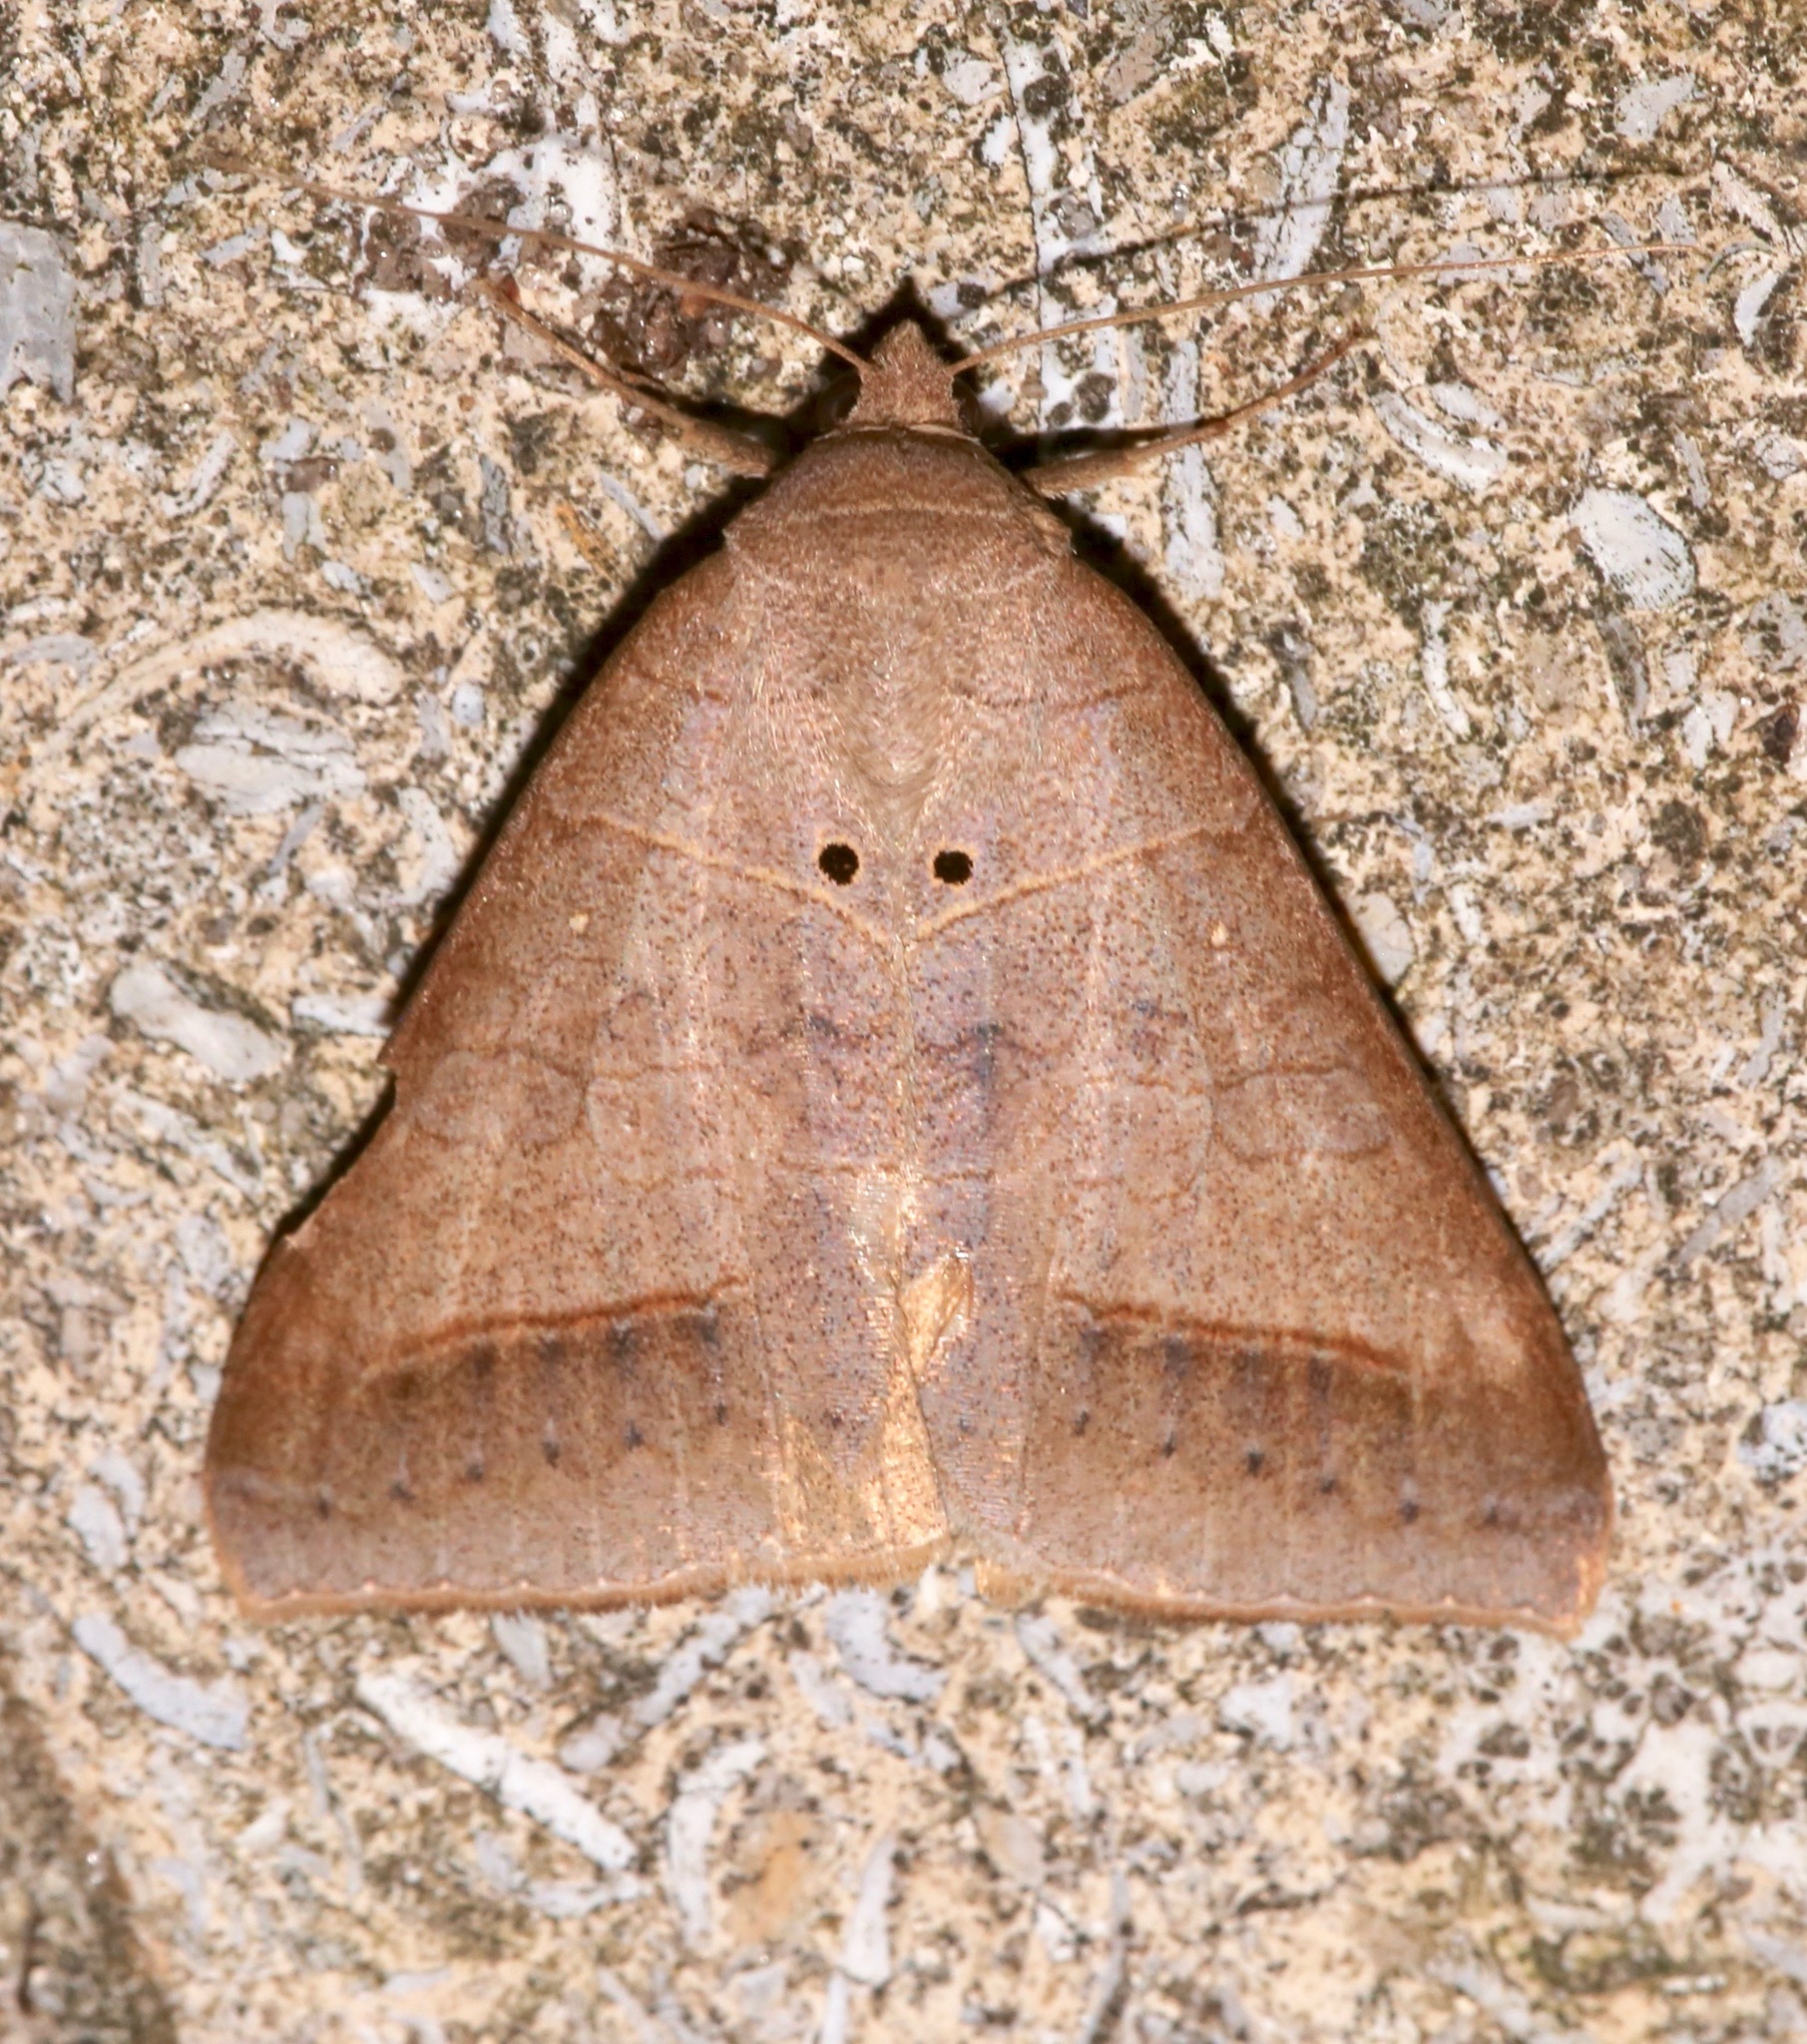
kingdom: Animalia
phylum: Arthropoda
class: Insecta
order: Lepidoptera
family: Erebidae
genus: Mocis
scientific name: Mocis marcida
